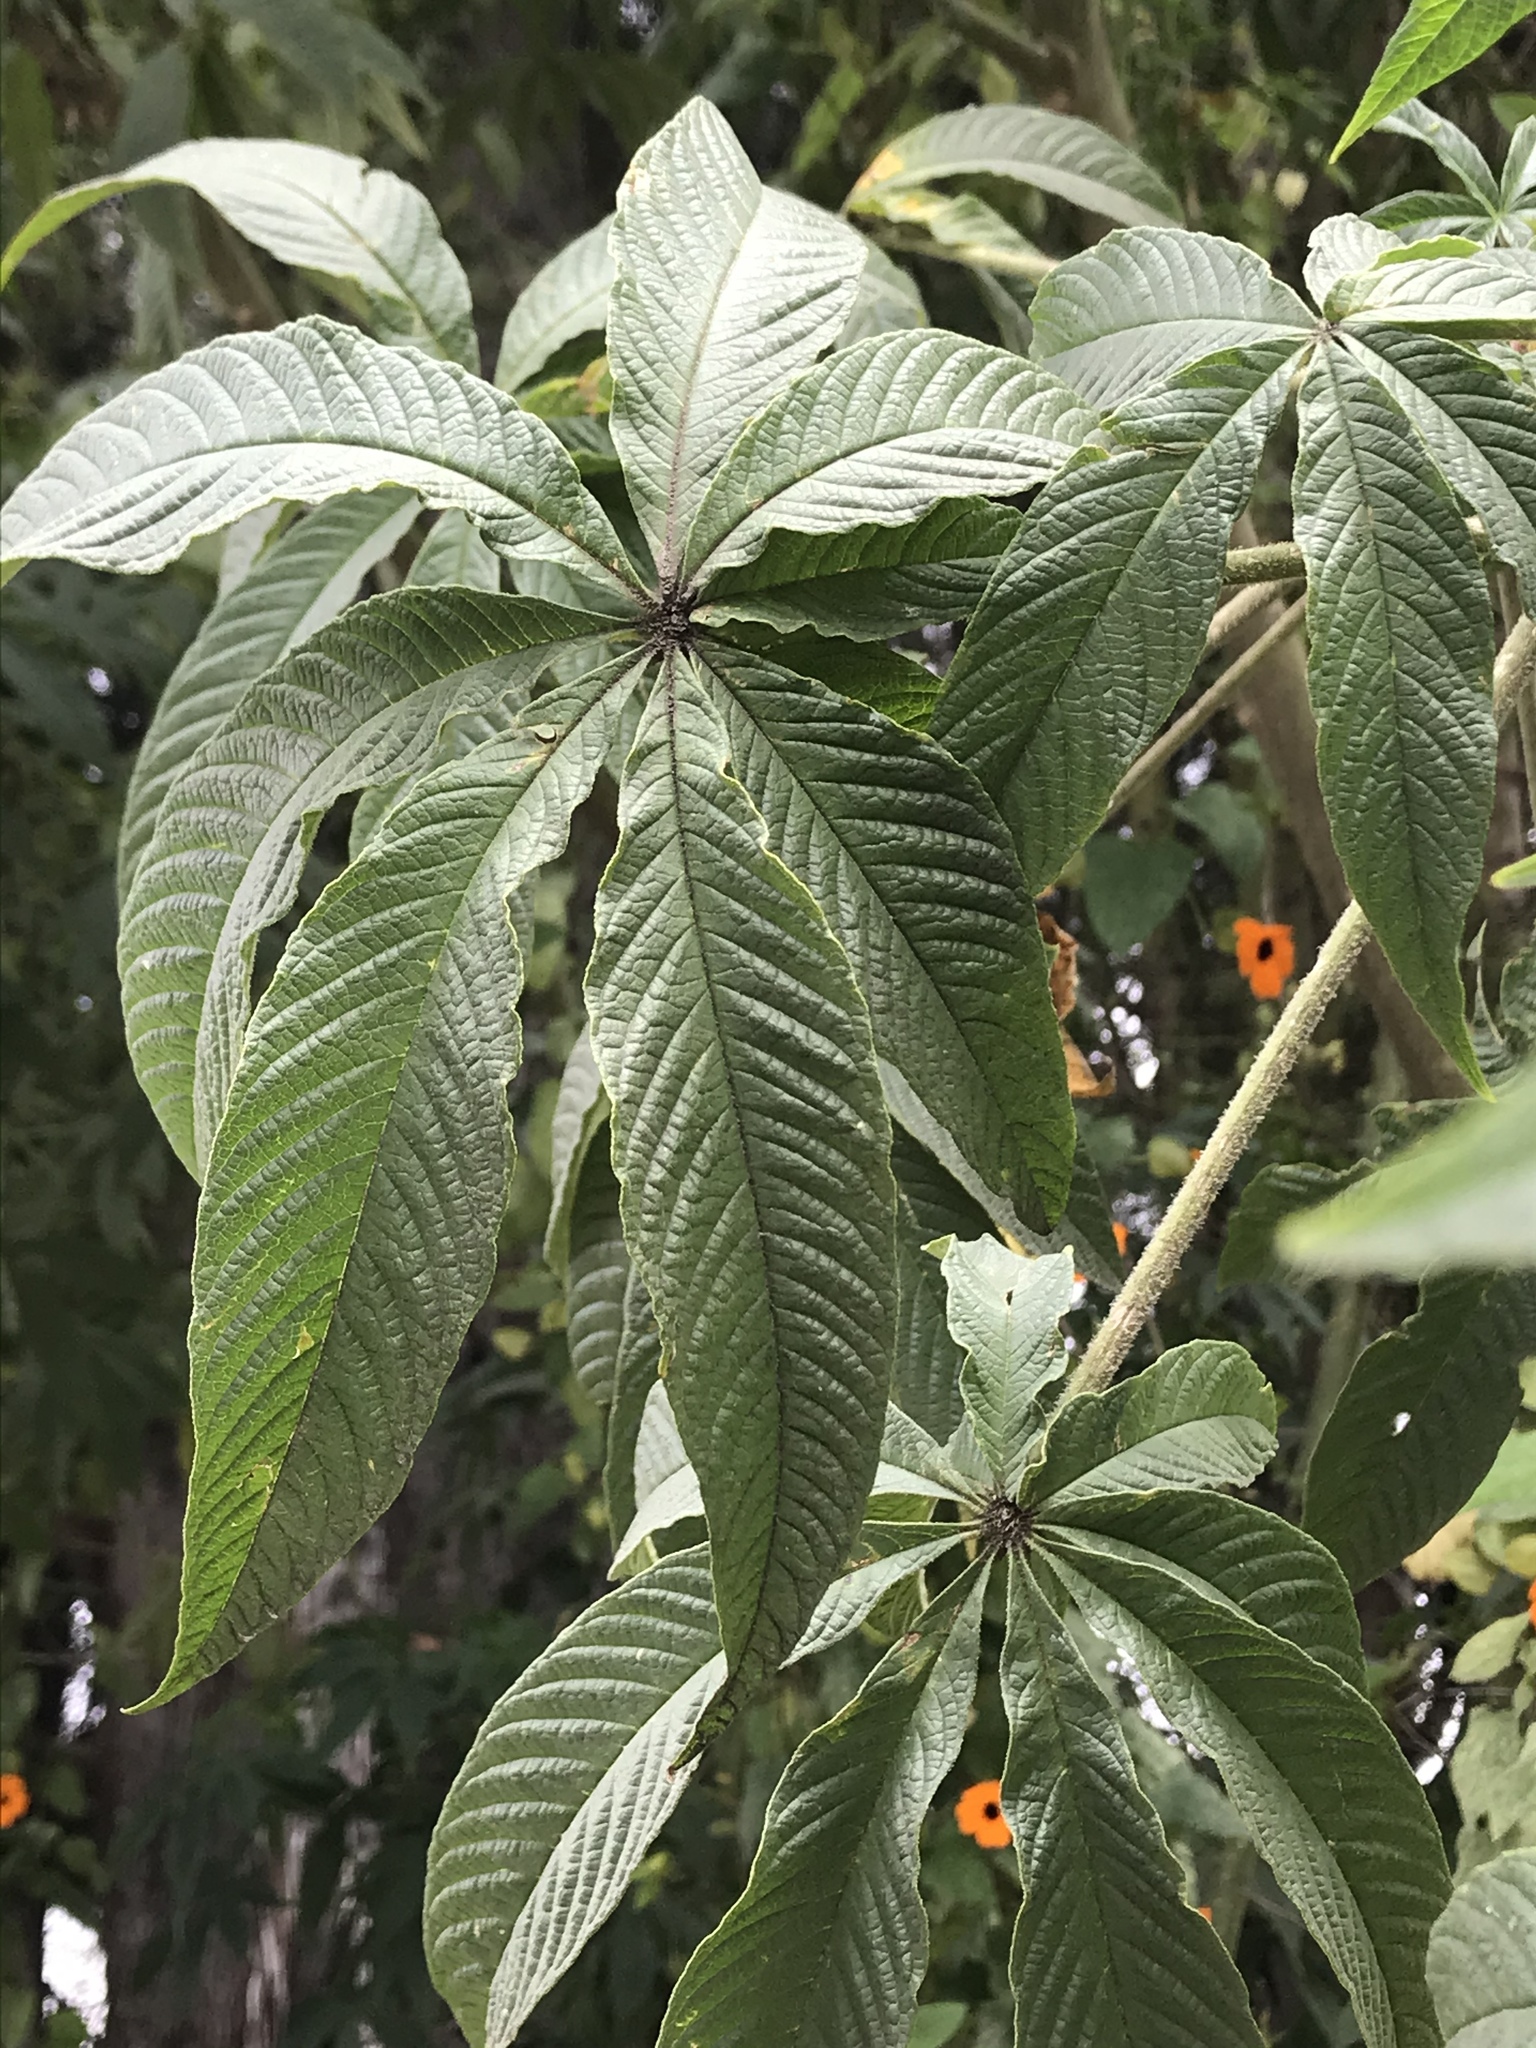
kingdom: Plantae
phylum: Tracheophyta
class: Magnoliopsida
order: Brassicales
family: Cleomaceae
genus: Andinocleome
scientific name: Andinocleome anomala
